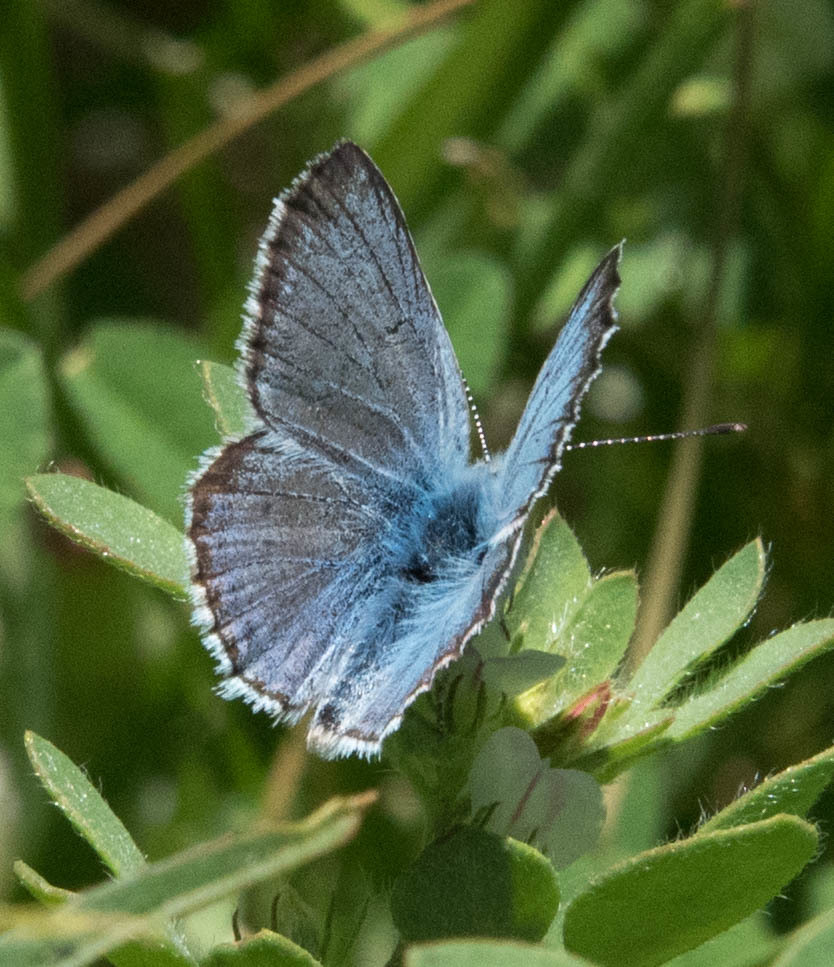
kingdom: Animalia
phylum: Arthropoda
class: Insecta
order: Lepidoptera
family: Lycaenidae
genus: Icaricia
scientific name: Icaricia saepiolus
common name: Greenish blue
